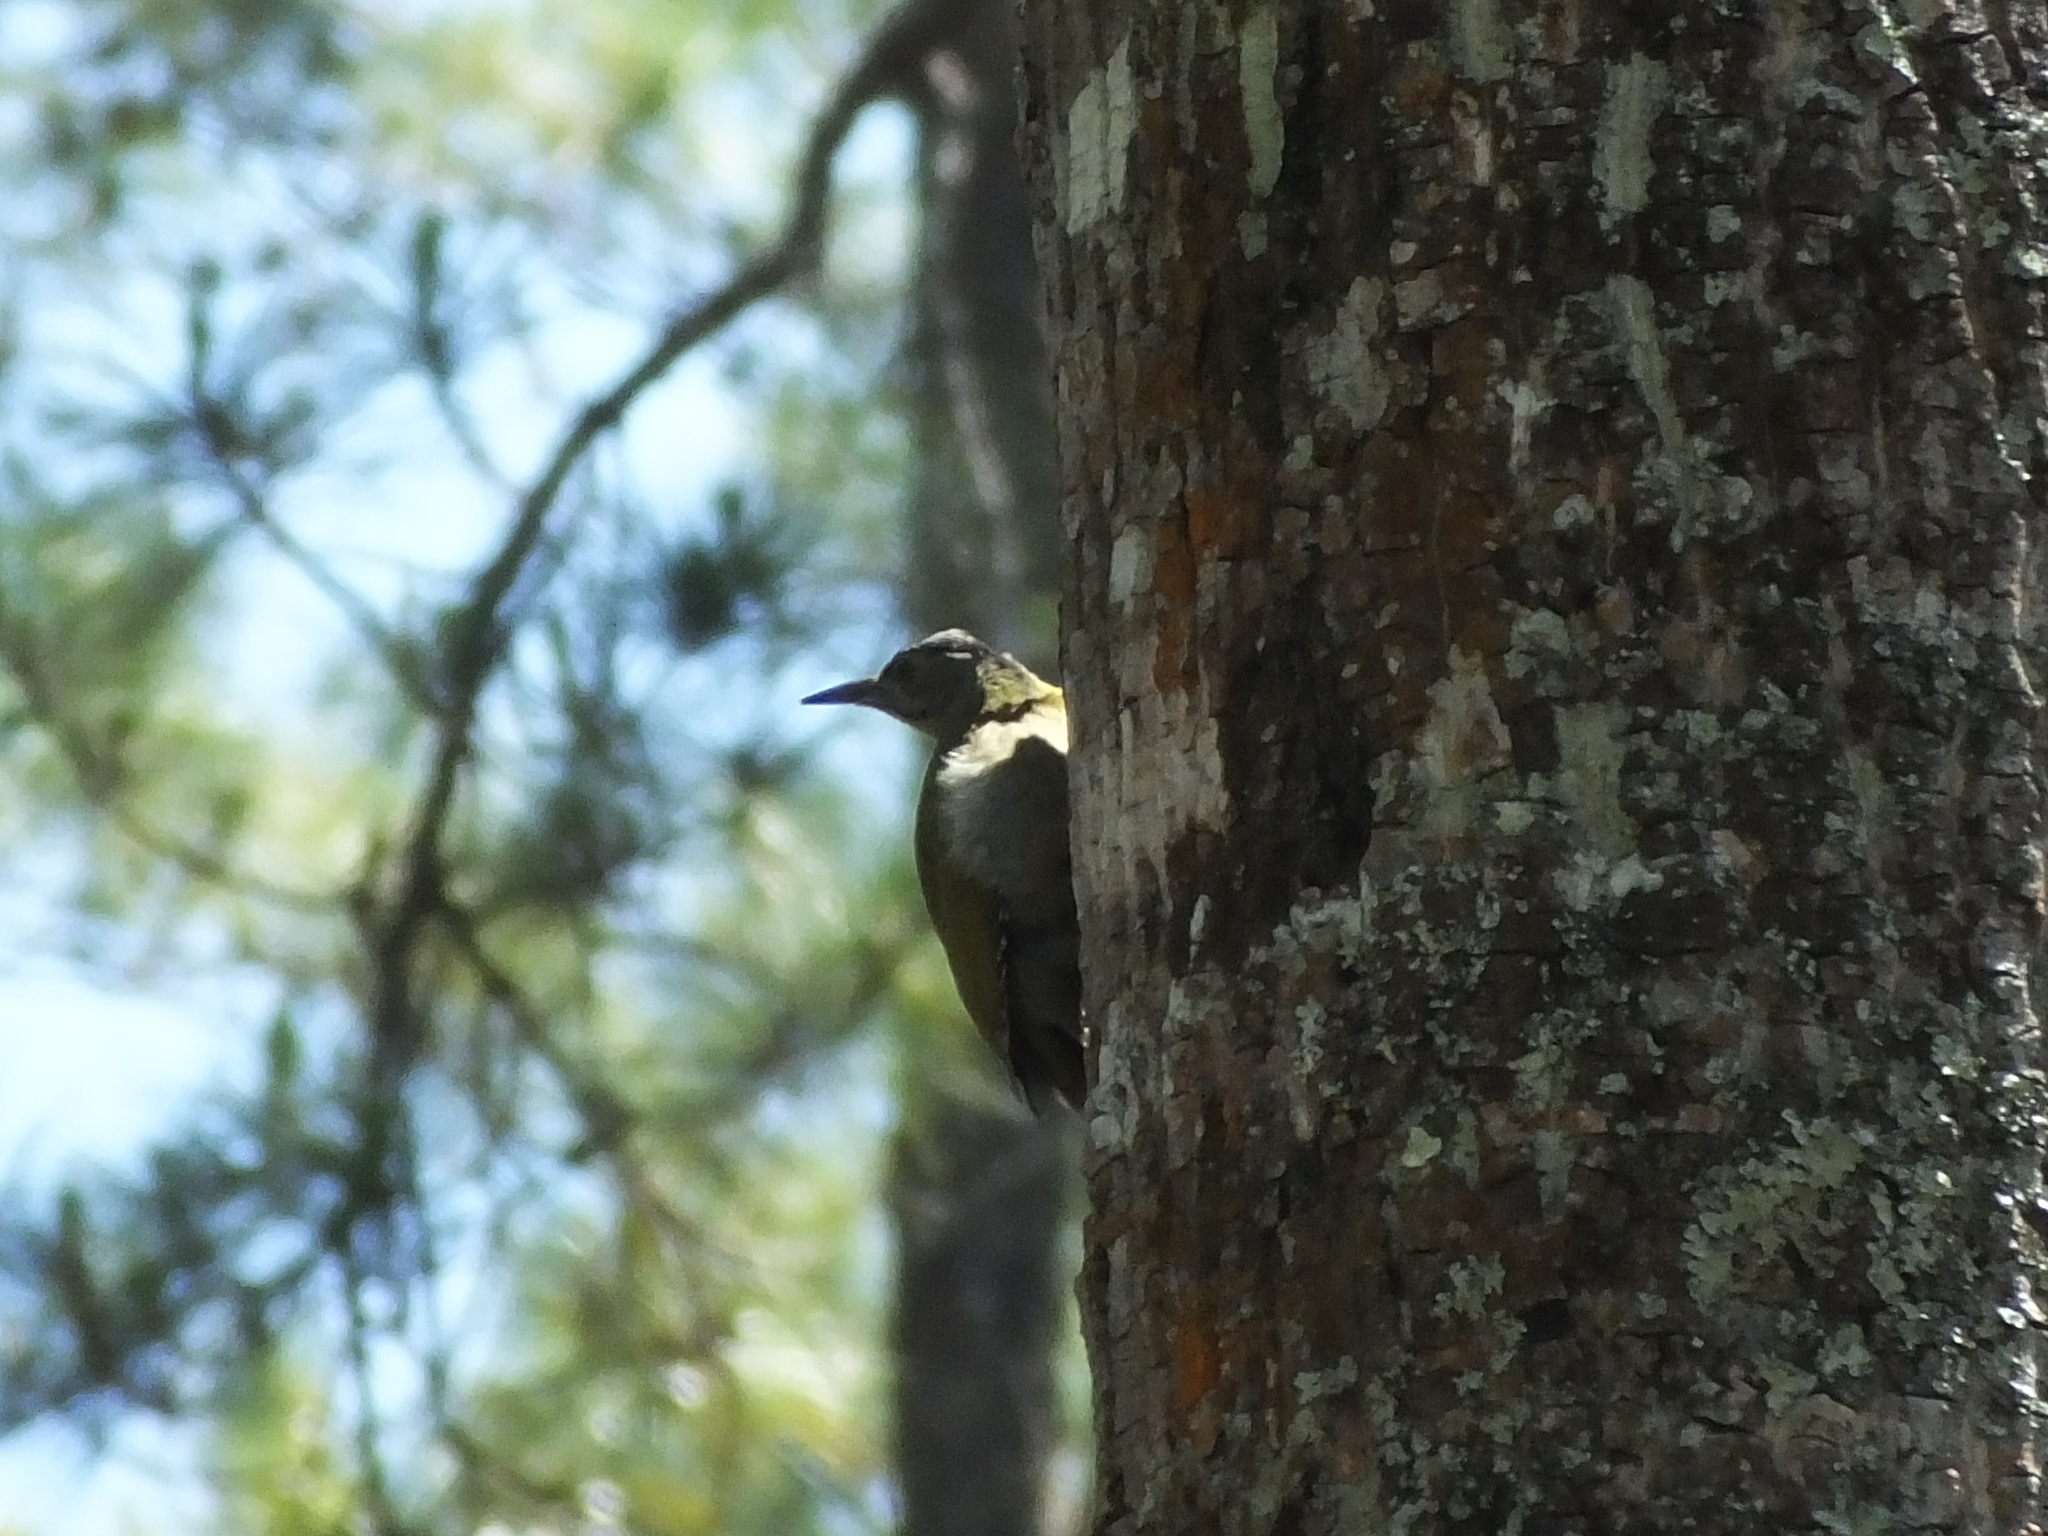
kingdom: Animalia
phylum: Chordata
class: Aves
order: Piciformes
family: Picidae
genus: Picus
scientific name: Picus canus
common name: Grey-headed woodpecker
